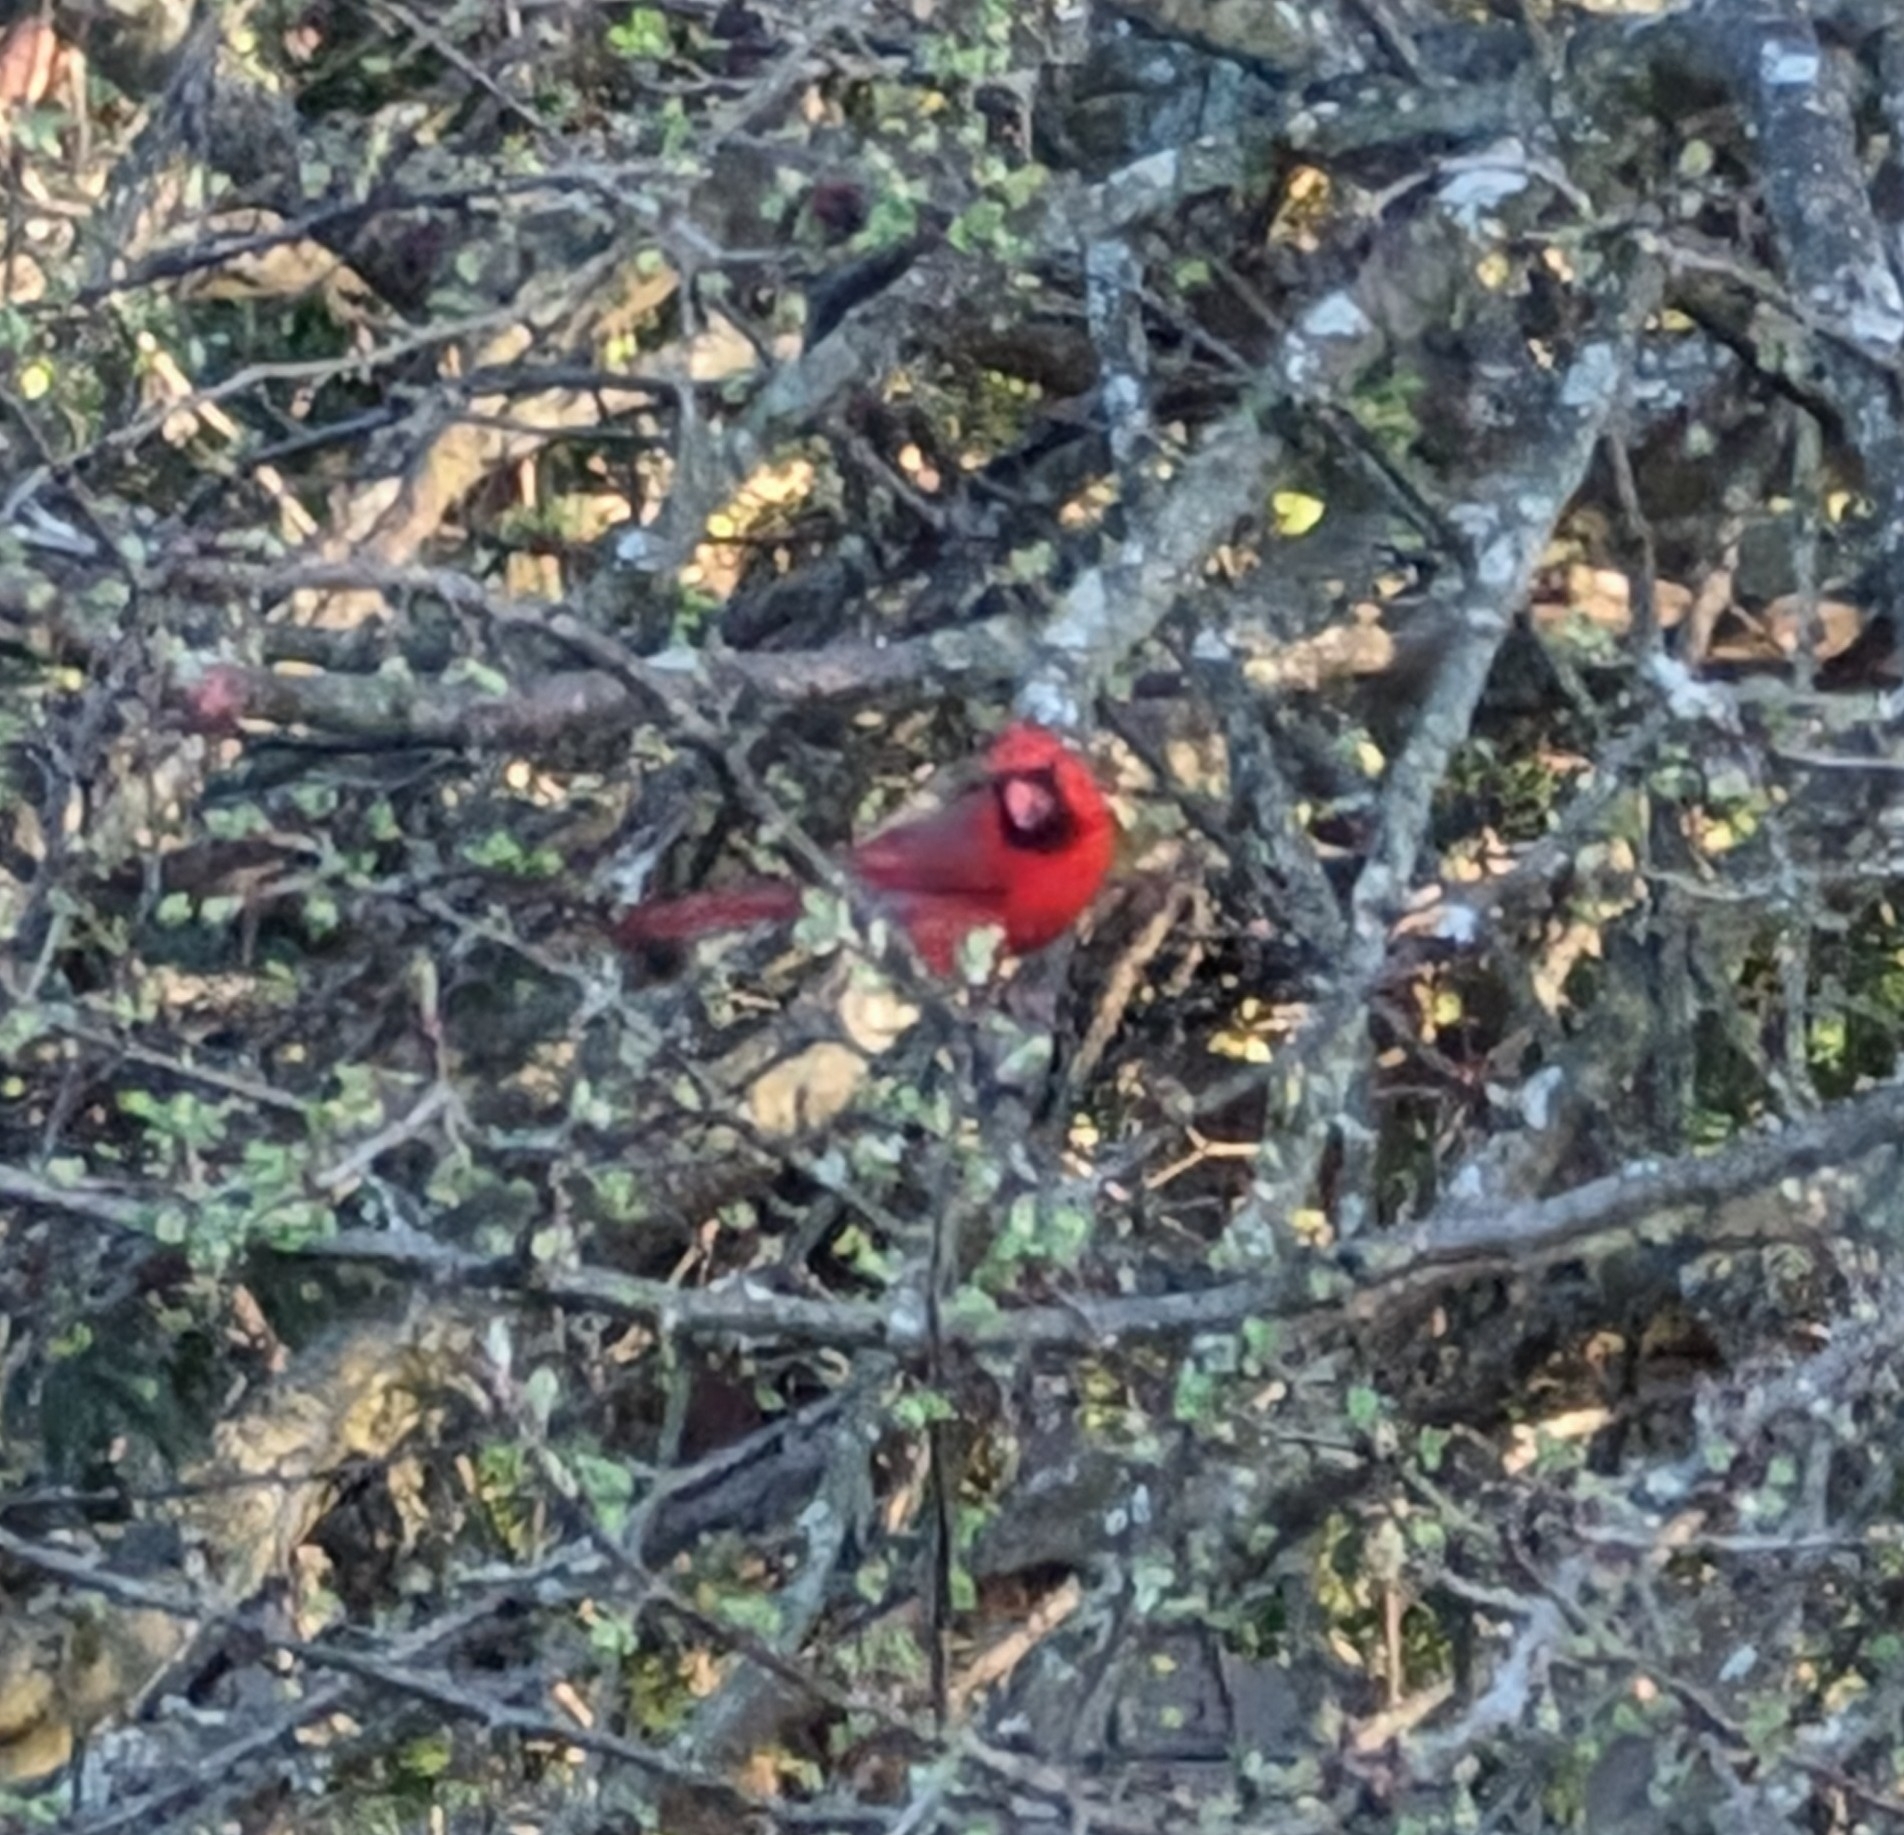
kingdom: Animalia
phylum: Chordata
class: Aves
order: Passeriformes
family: Cardinalidae
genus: Cardinalis
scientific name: Cardinalis cardinalis
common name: Northern cardinal
